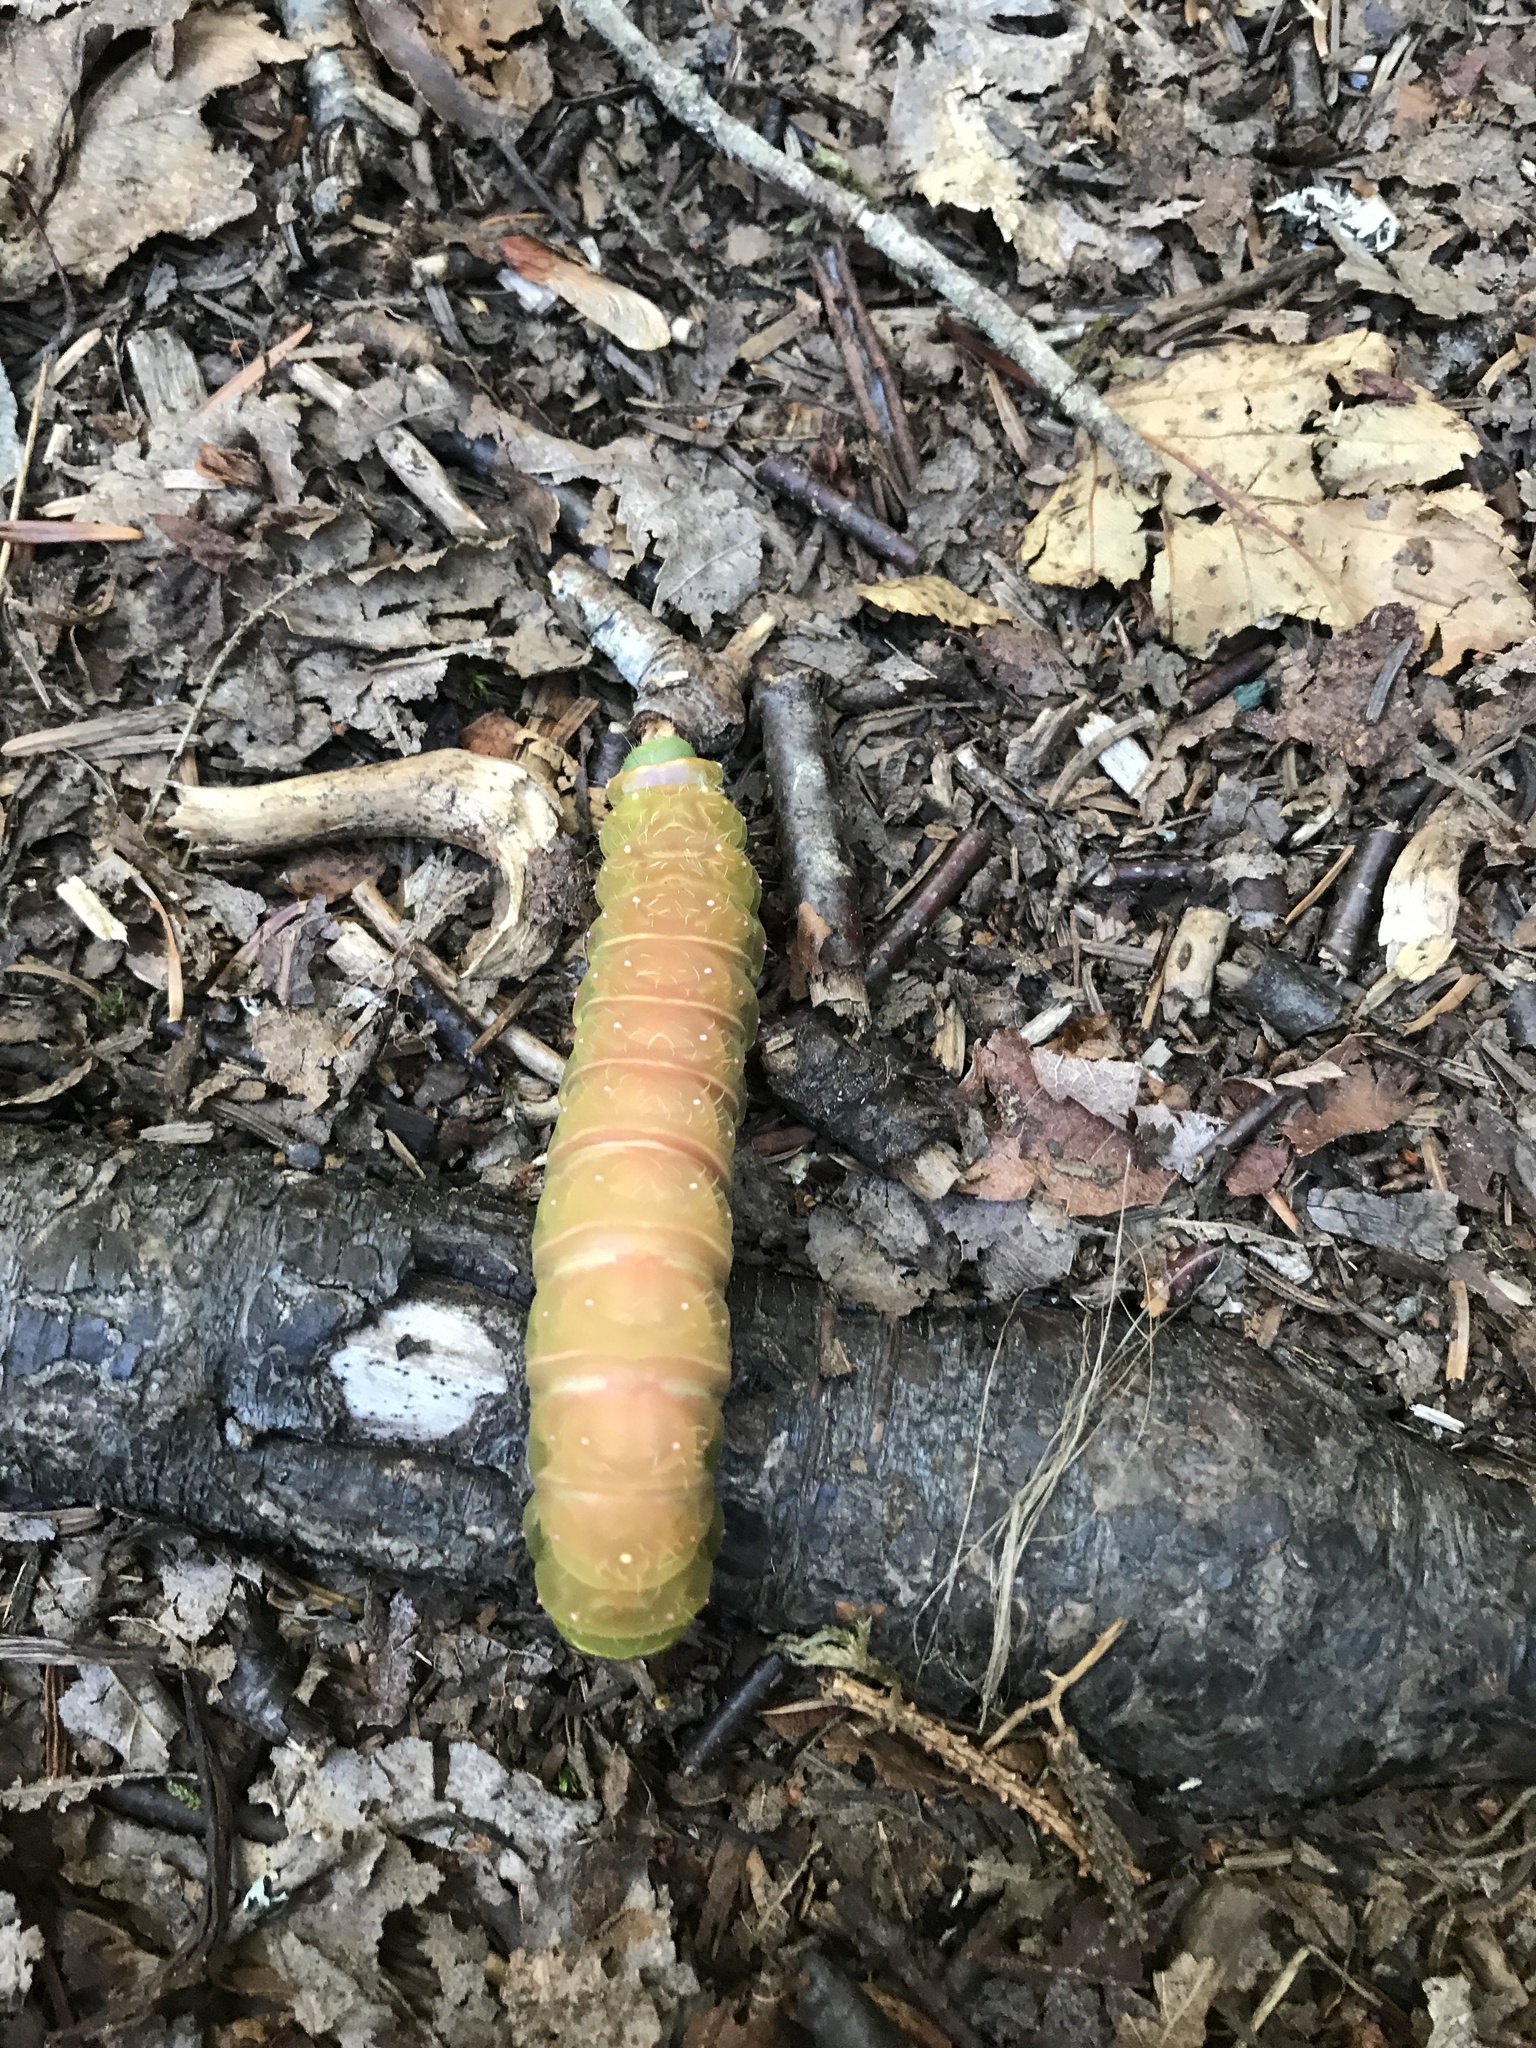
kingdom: Animalia
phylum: Arthropoda
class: Insecta
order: Lepidoptera
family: Saturniidae
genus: Actias
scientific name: Actias luna
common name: Luna moth
